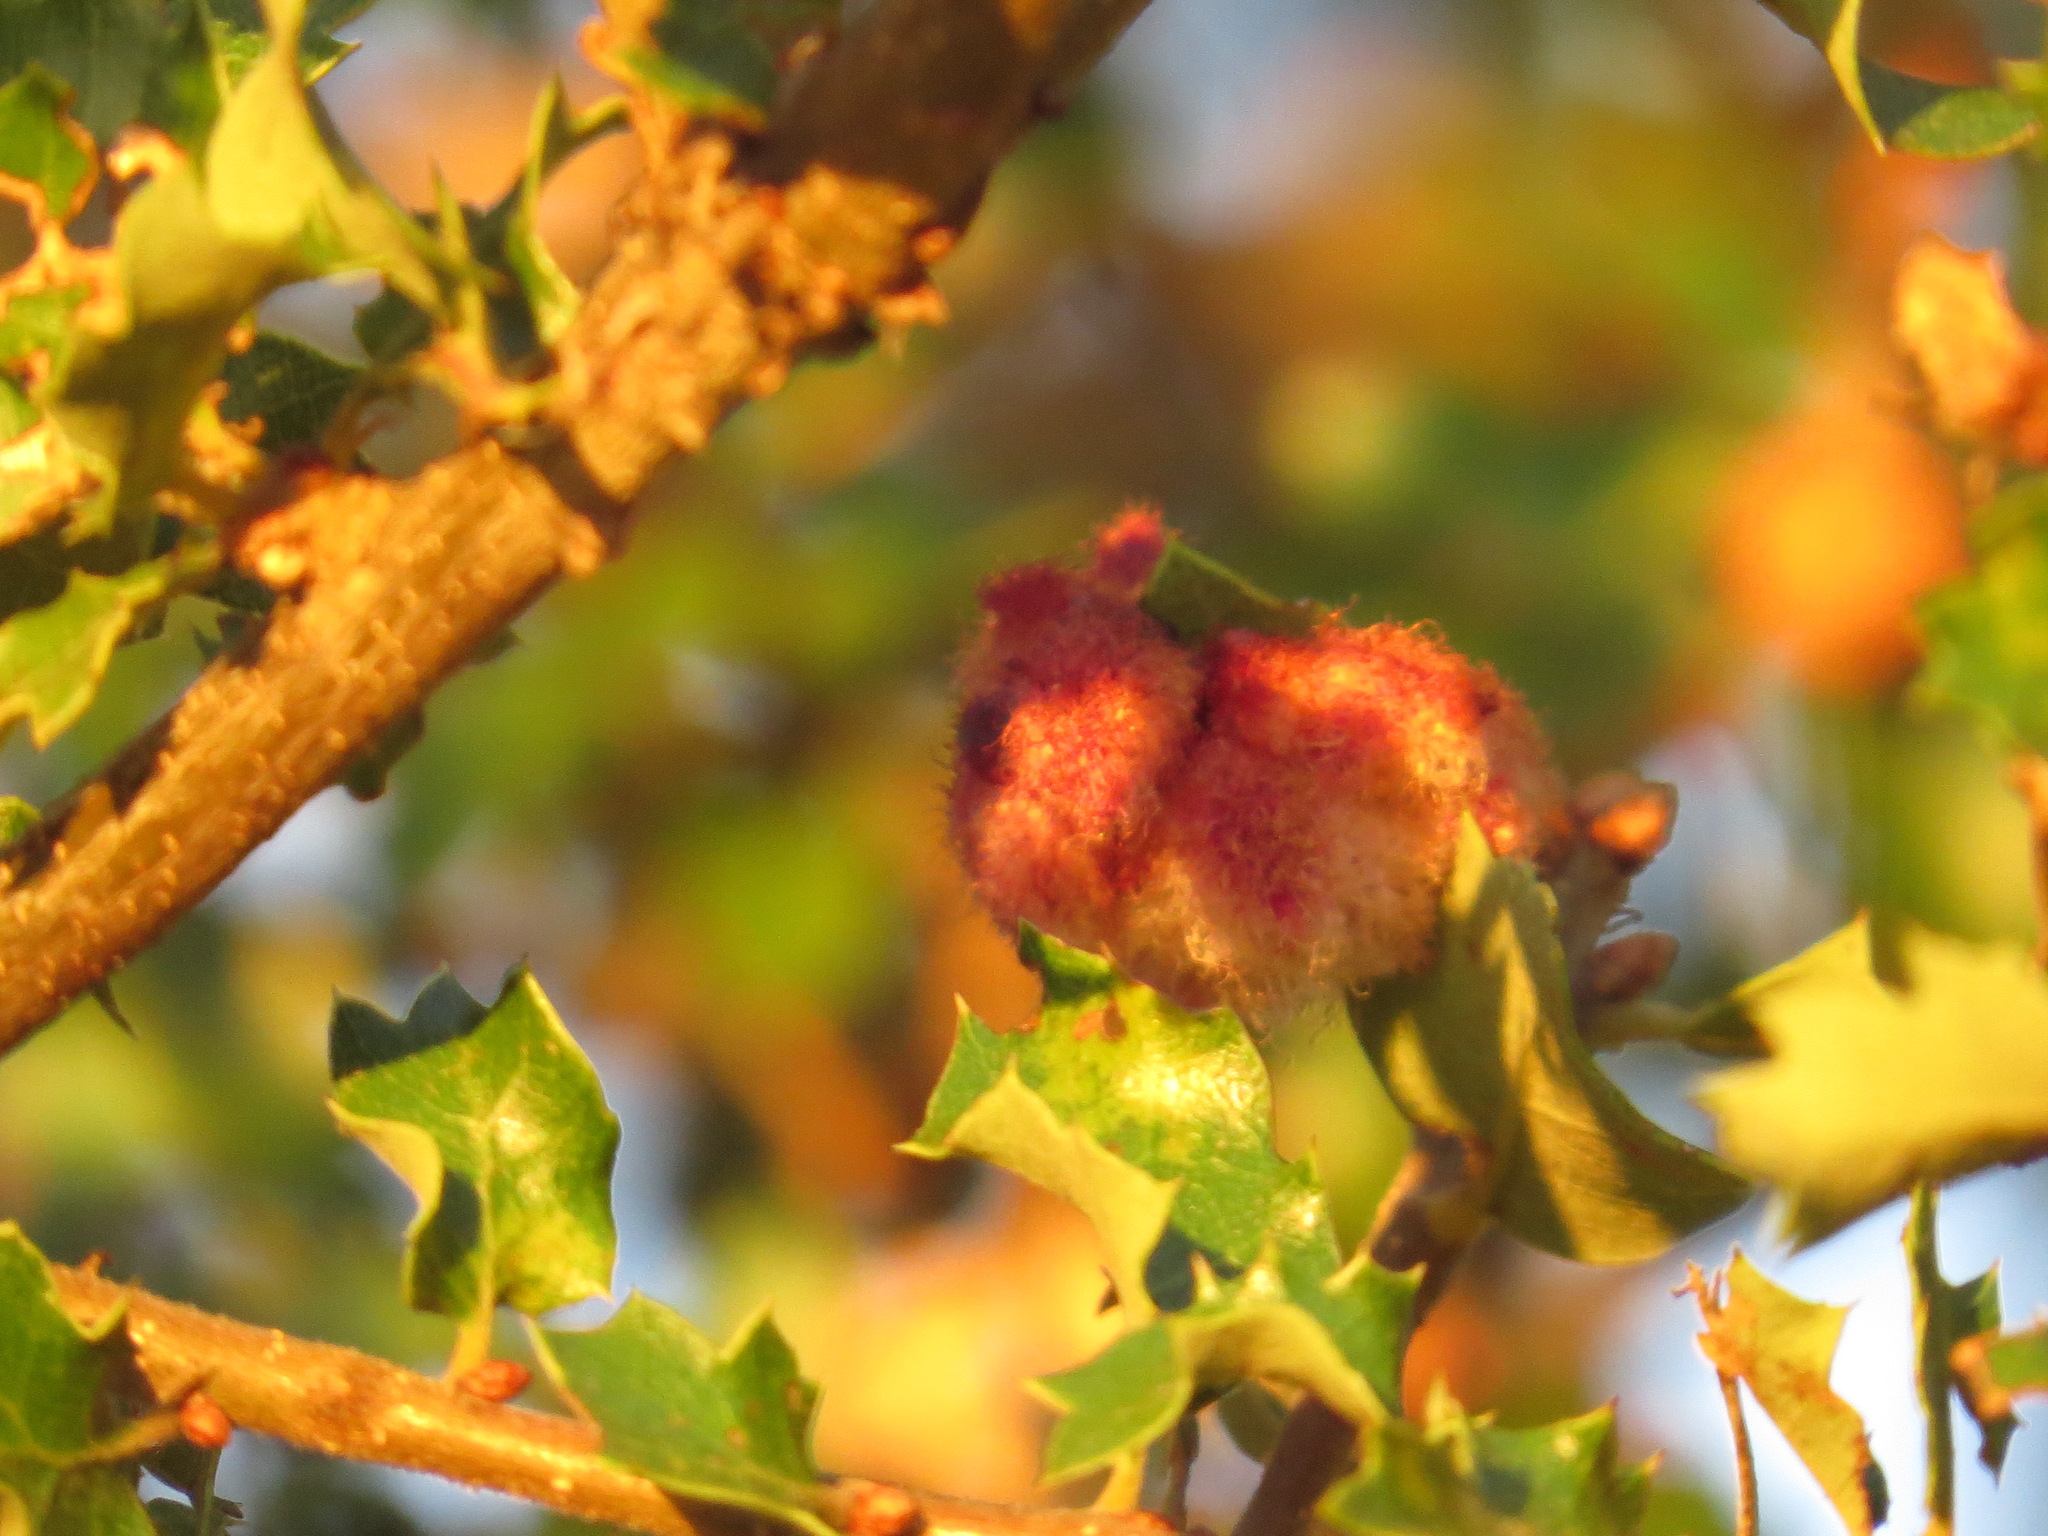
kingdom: Animalia
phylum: Arthropoda
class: Insecta
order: Hymenoptera
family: Cynipidae
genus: Andricus
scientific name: Andricus
